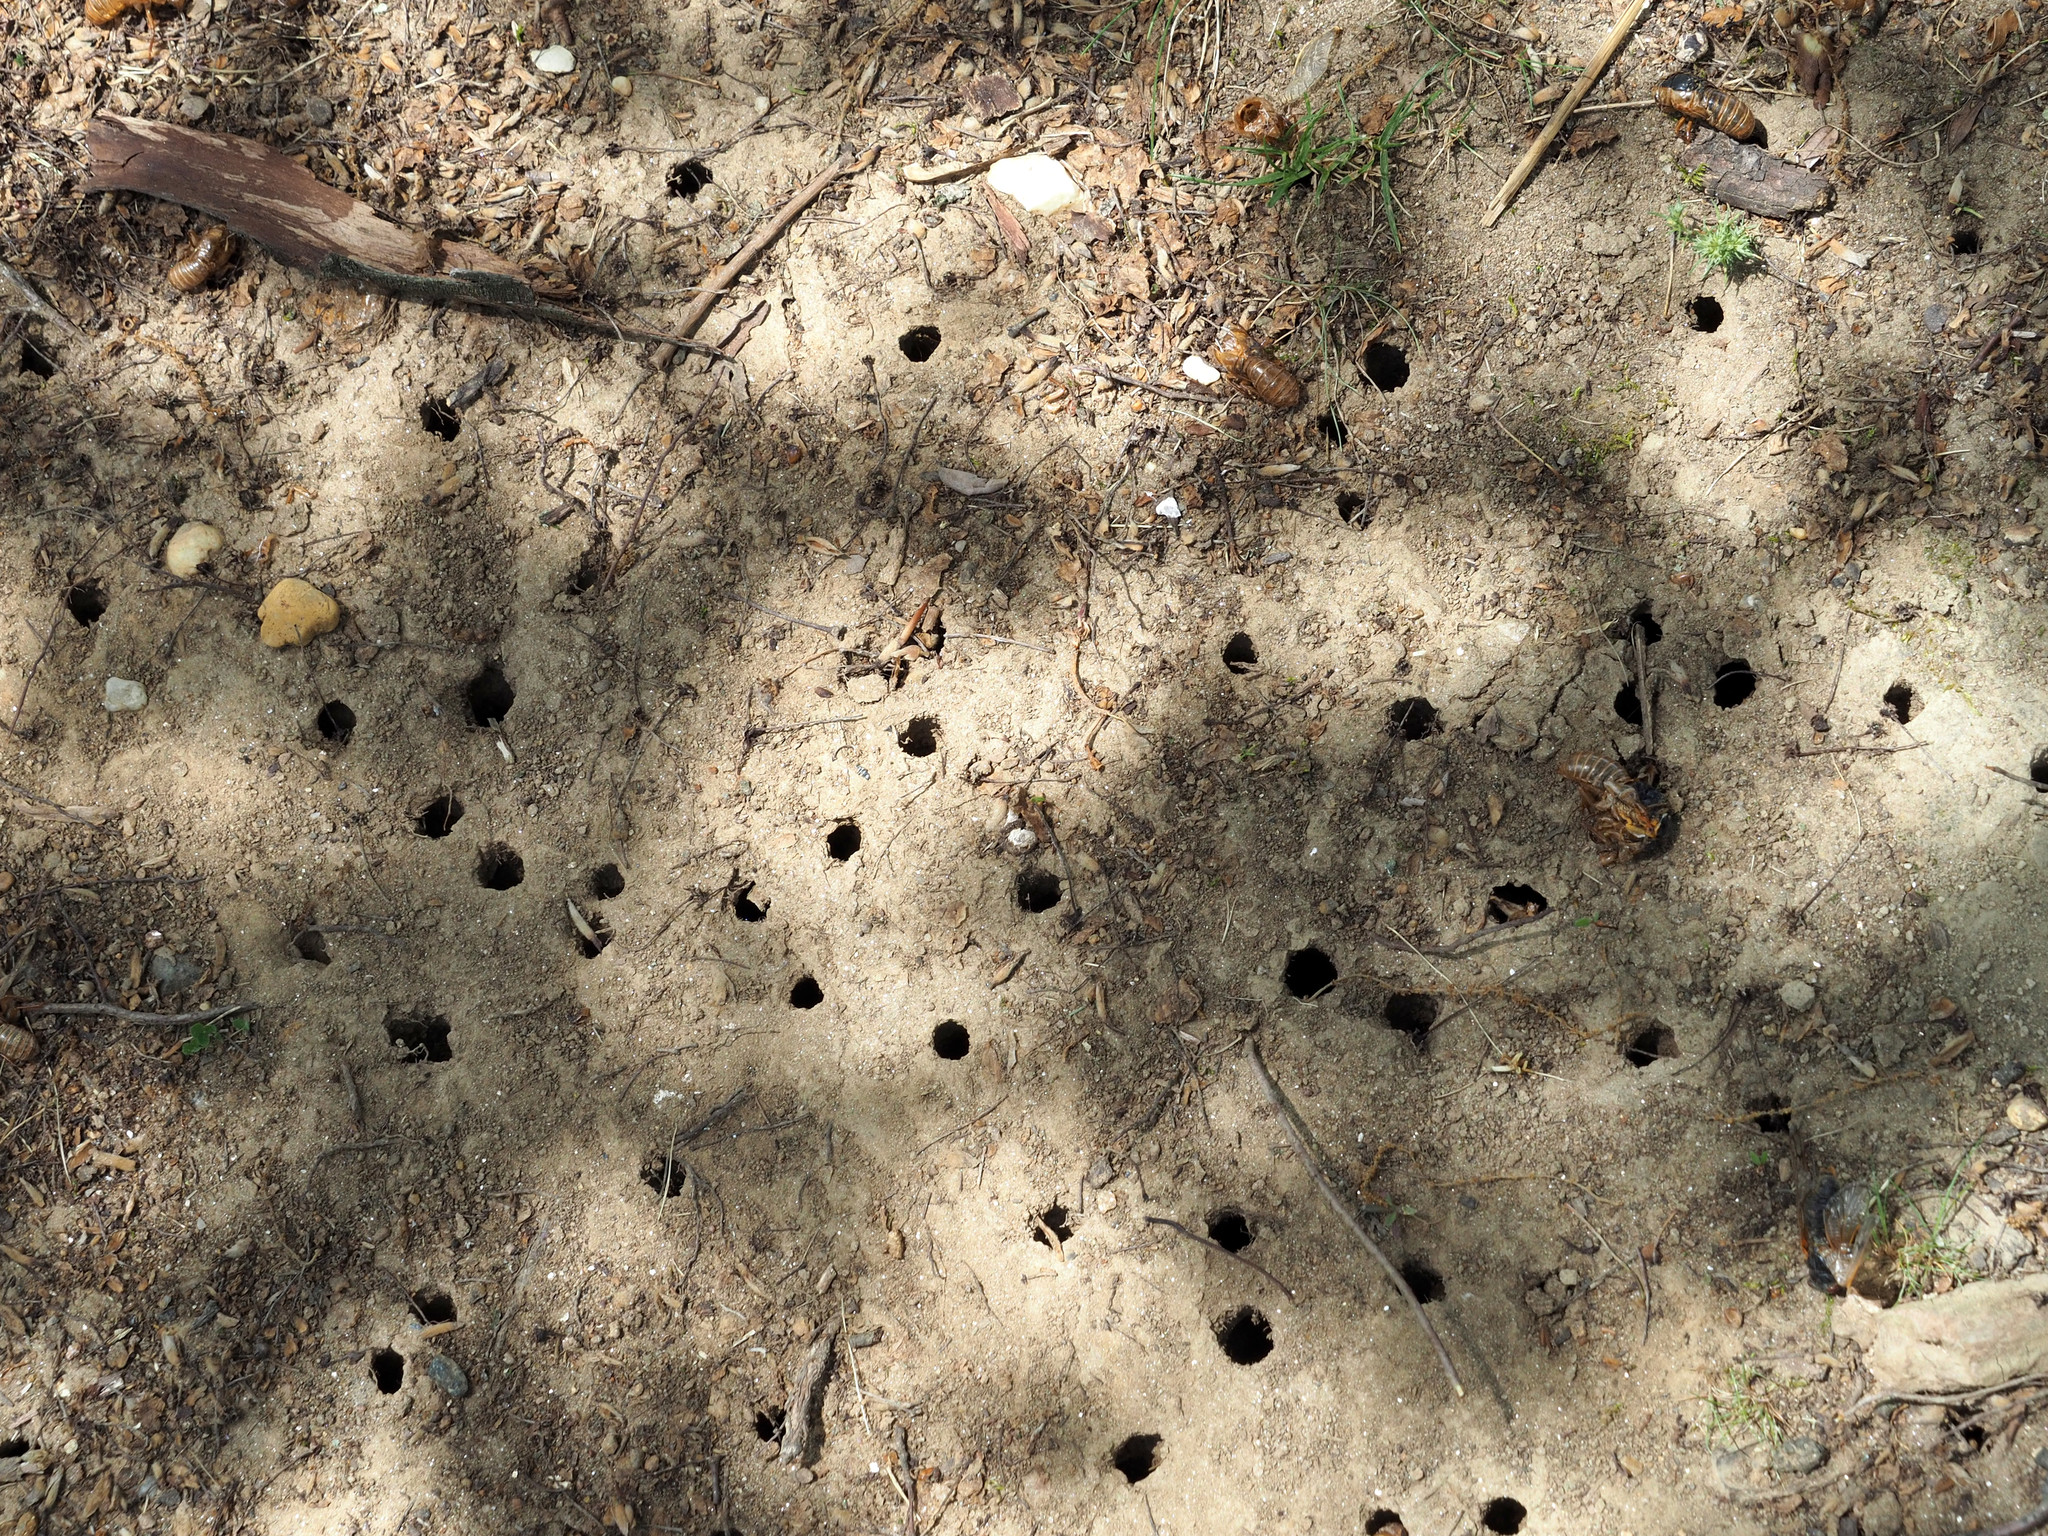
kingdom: Animalia
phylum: Arthropoda
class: Insecta
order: Hemiptera
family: Cicadidae
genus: Magicicada
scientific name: Magicicada
